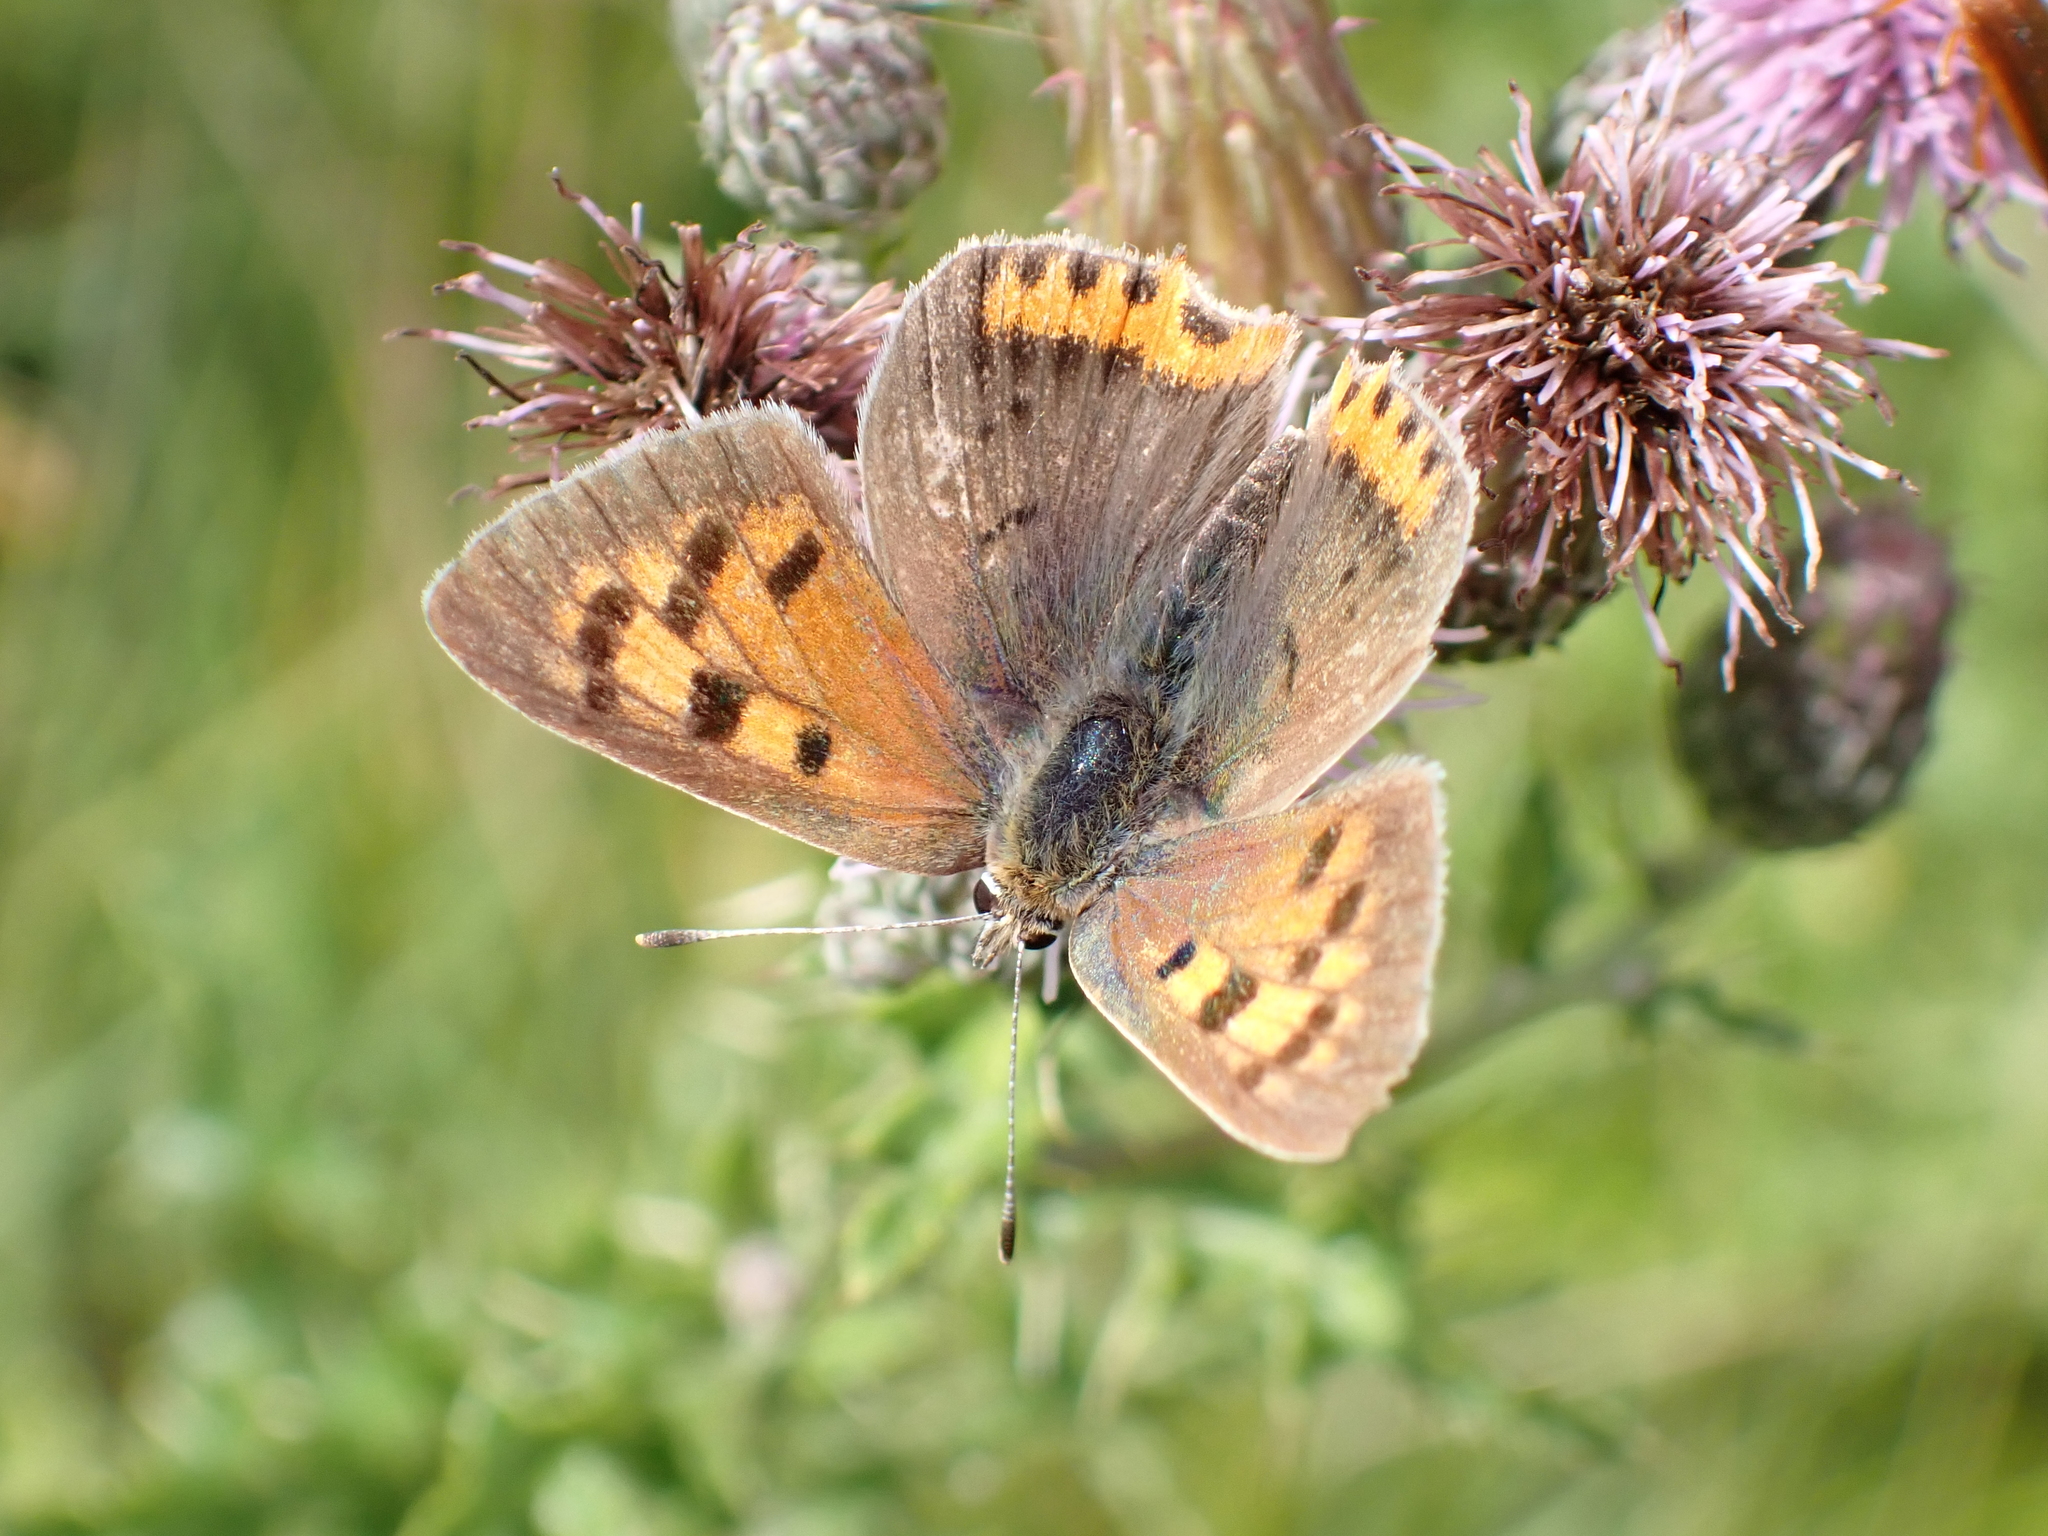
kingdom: Animalia
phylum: Arthropoda
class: Insecta
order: Lepidoptera
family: Lycaenidae
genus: Lycaena
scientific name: Lycaena phlaeas
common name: Small copper
